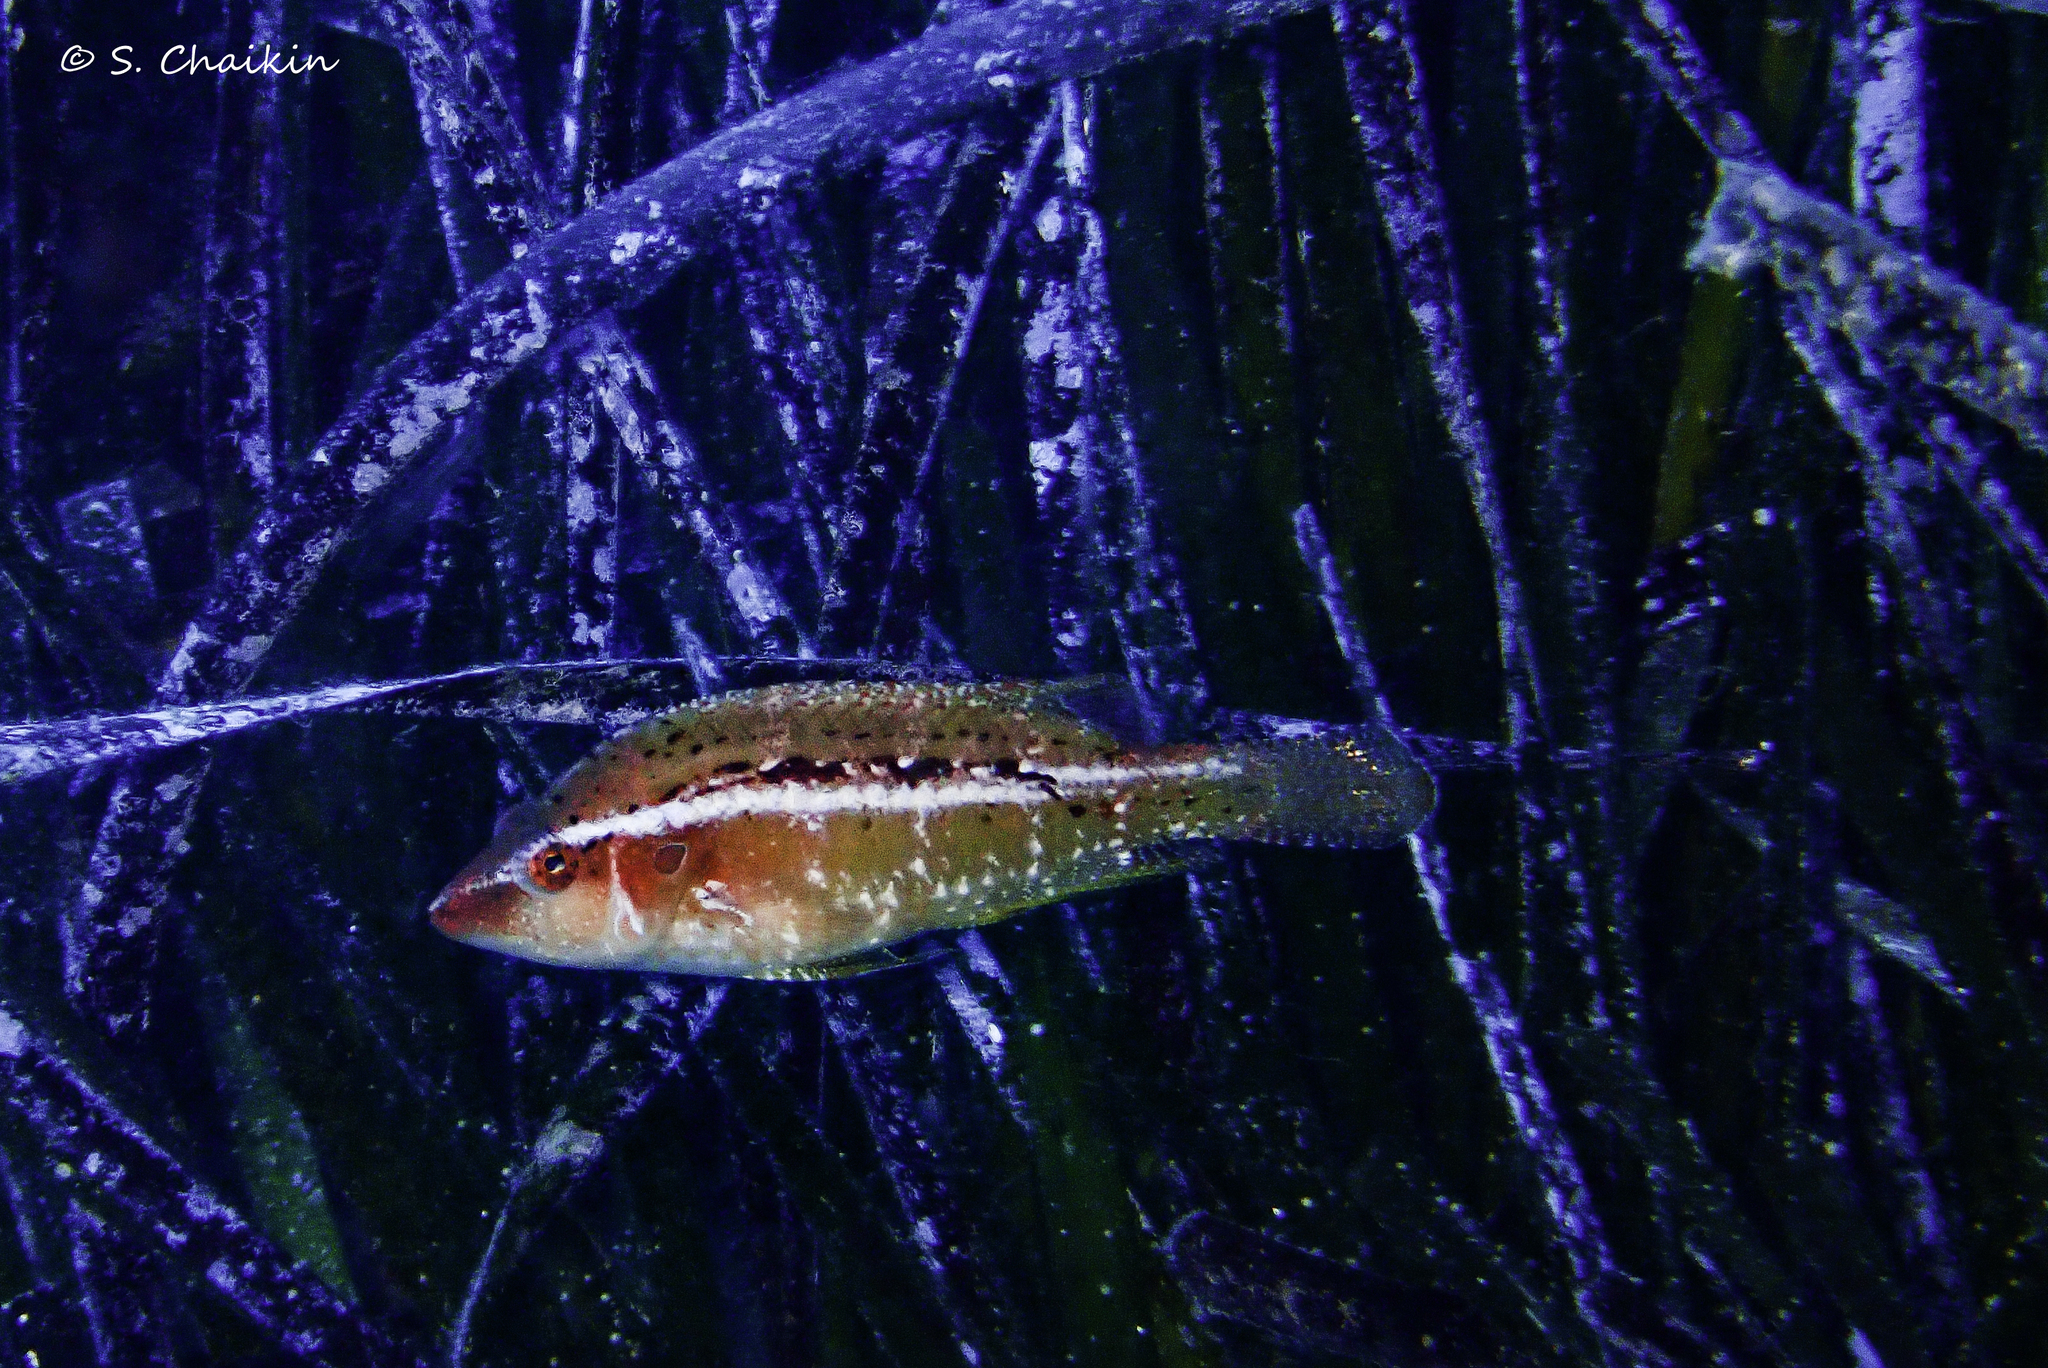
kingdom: Animalia
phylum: Chordata
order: Perciformes
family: Labridae
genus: Pteragogus
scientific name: Pteragogus trispilus
